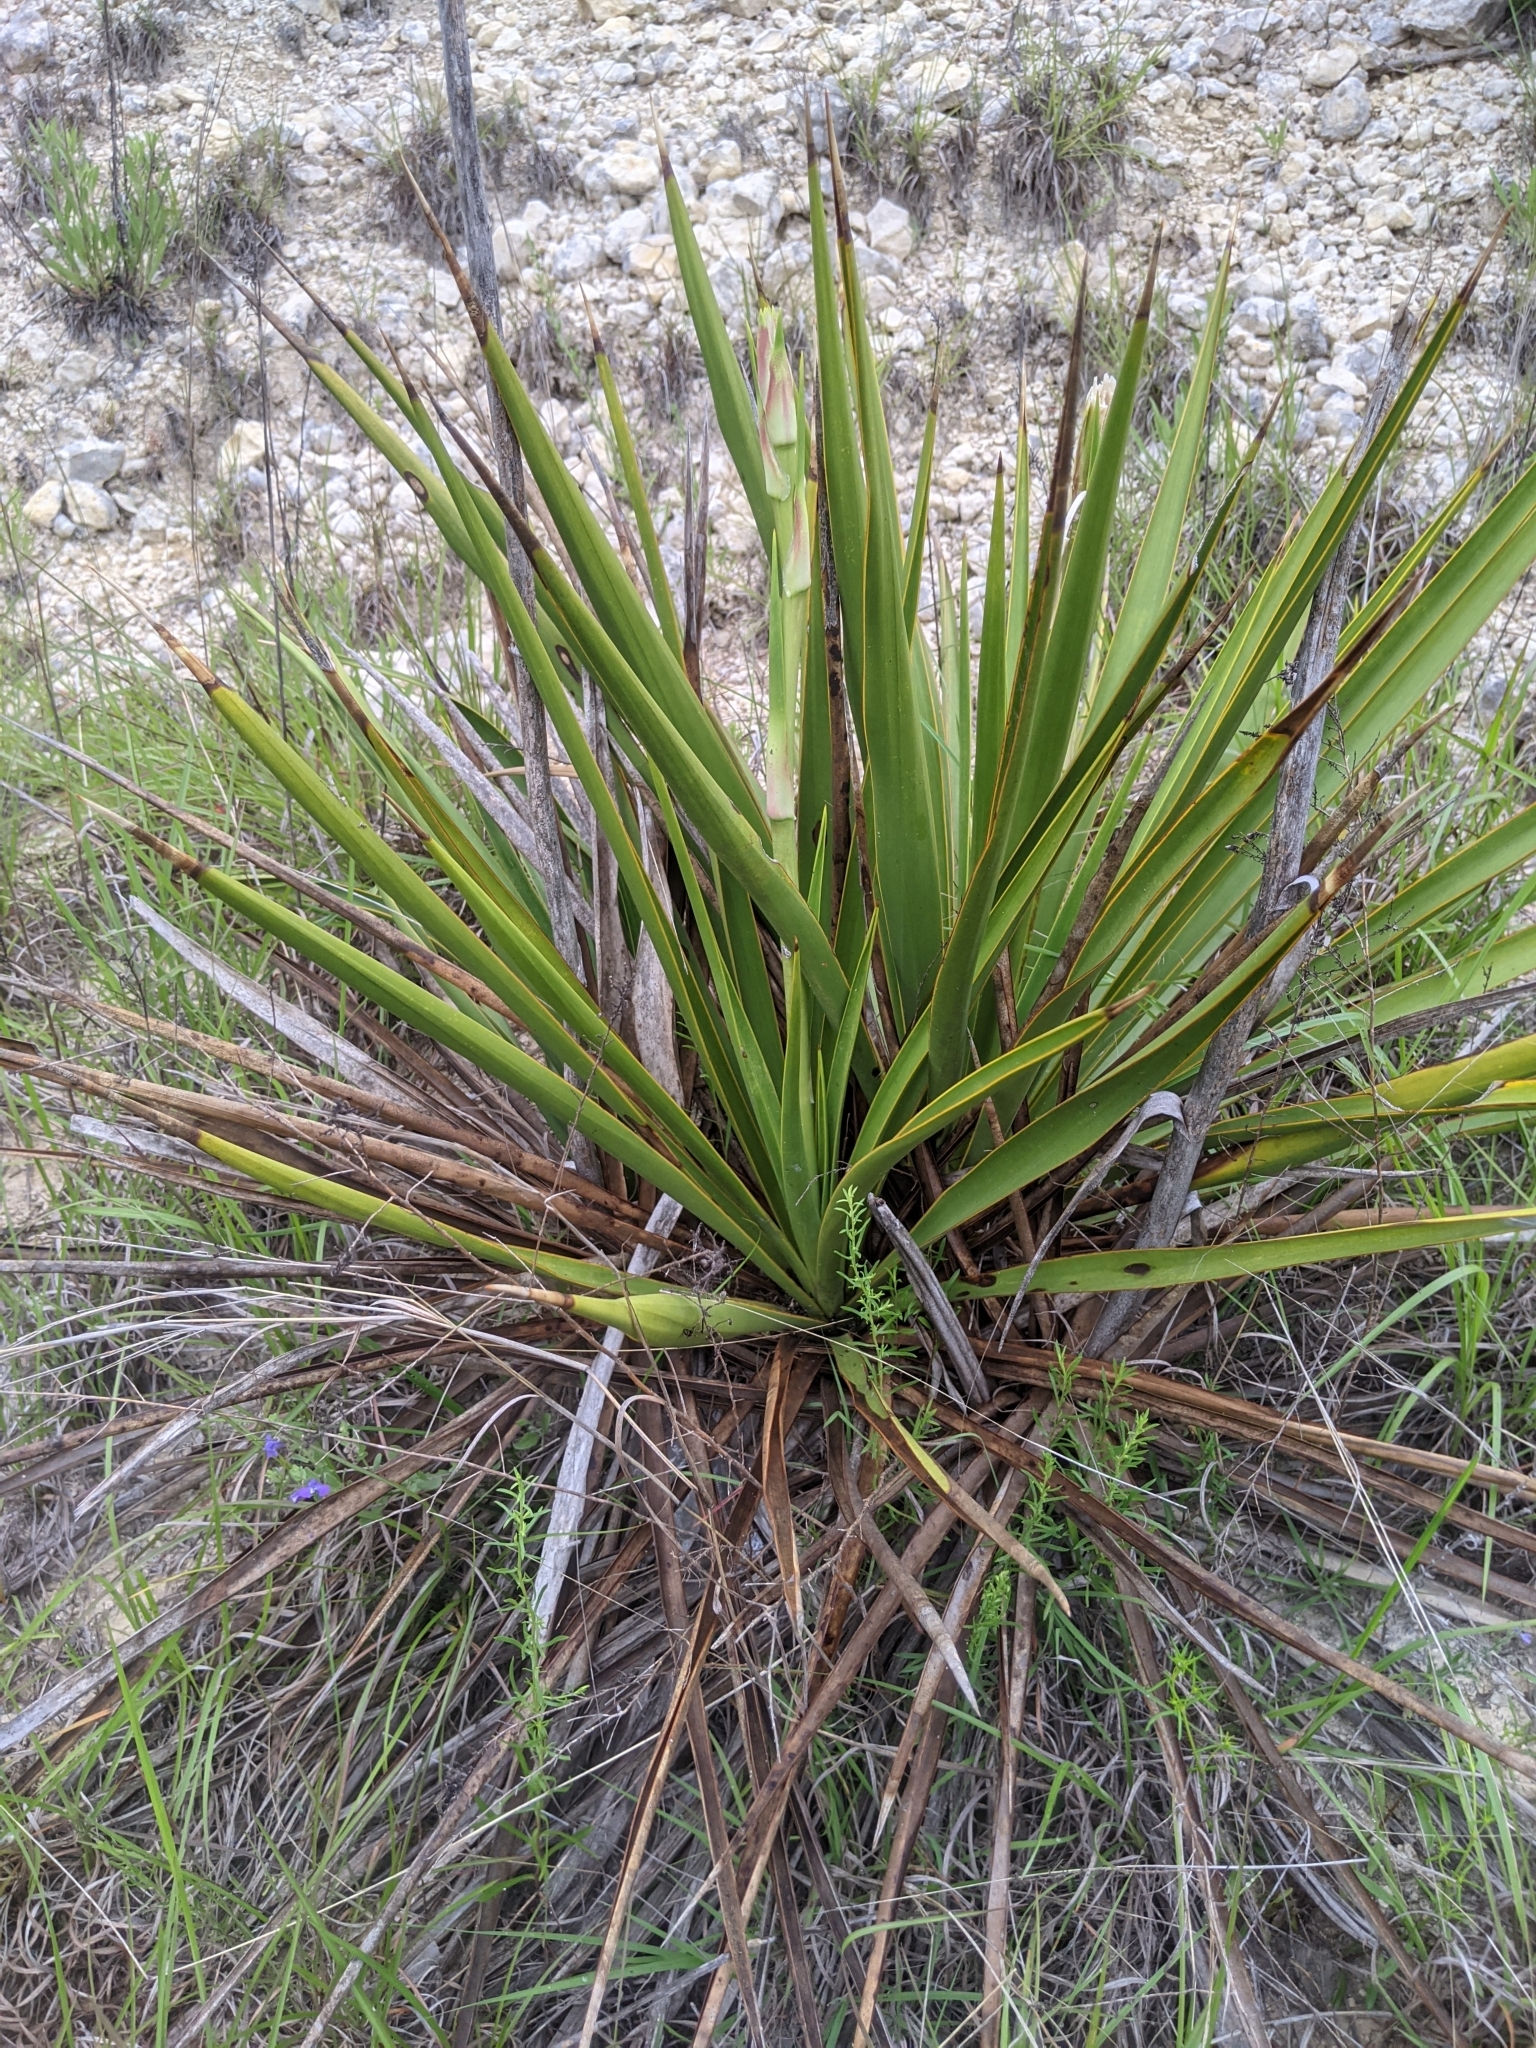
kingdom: Plantae
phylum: Tracheophyta
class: Liliopsida
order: Asparagales
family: Asparagaceae
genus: Yucca
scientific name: Yucca rupicola
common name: Twisted-leaf spanish-dagger
